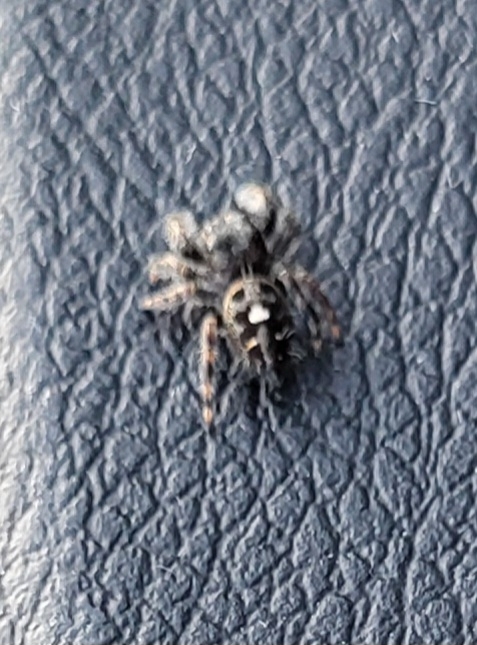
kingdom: Animalia
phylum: Arthropoda
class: Arachnida
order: Araneae
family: Salticidae
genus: Phidippus
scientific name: Phidippus audax
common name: Bold jumper
